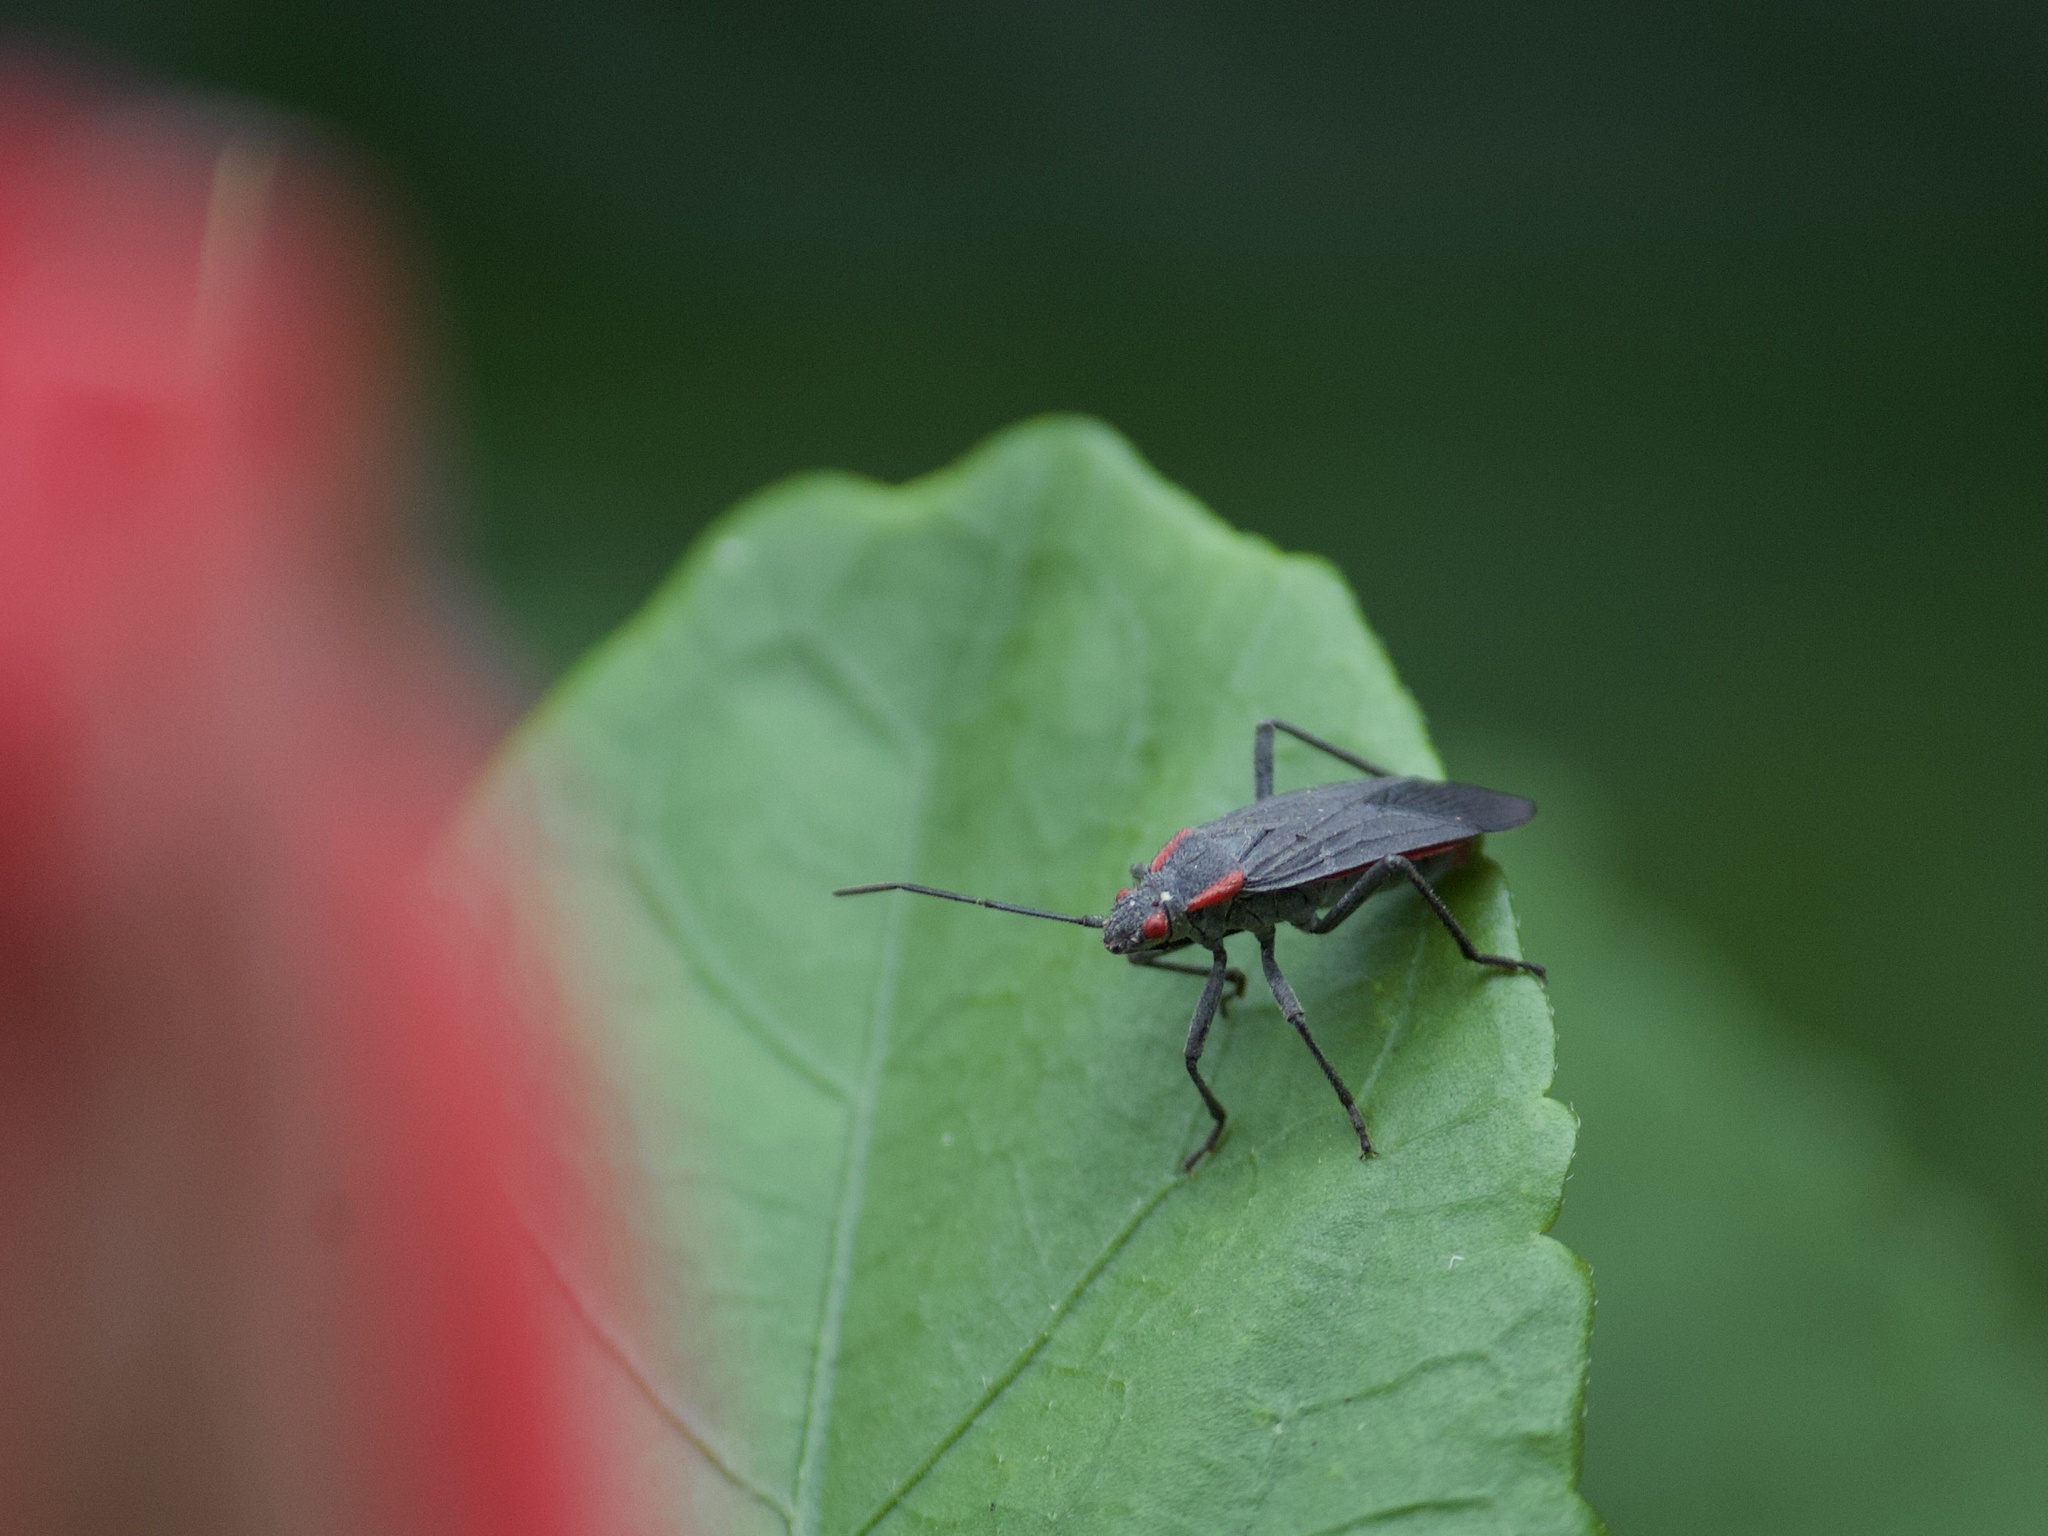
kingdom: Animalia
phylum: Arthropoda
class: Insecta
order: Hemiptera
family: Rhopalidae
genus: Jadera
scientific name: Jadera haematoloma
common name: Red-shouldered bug
